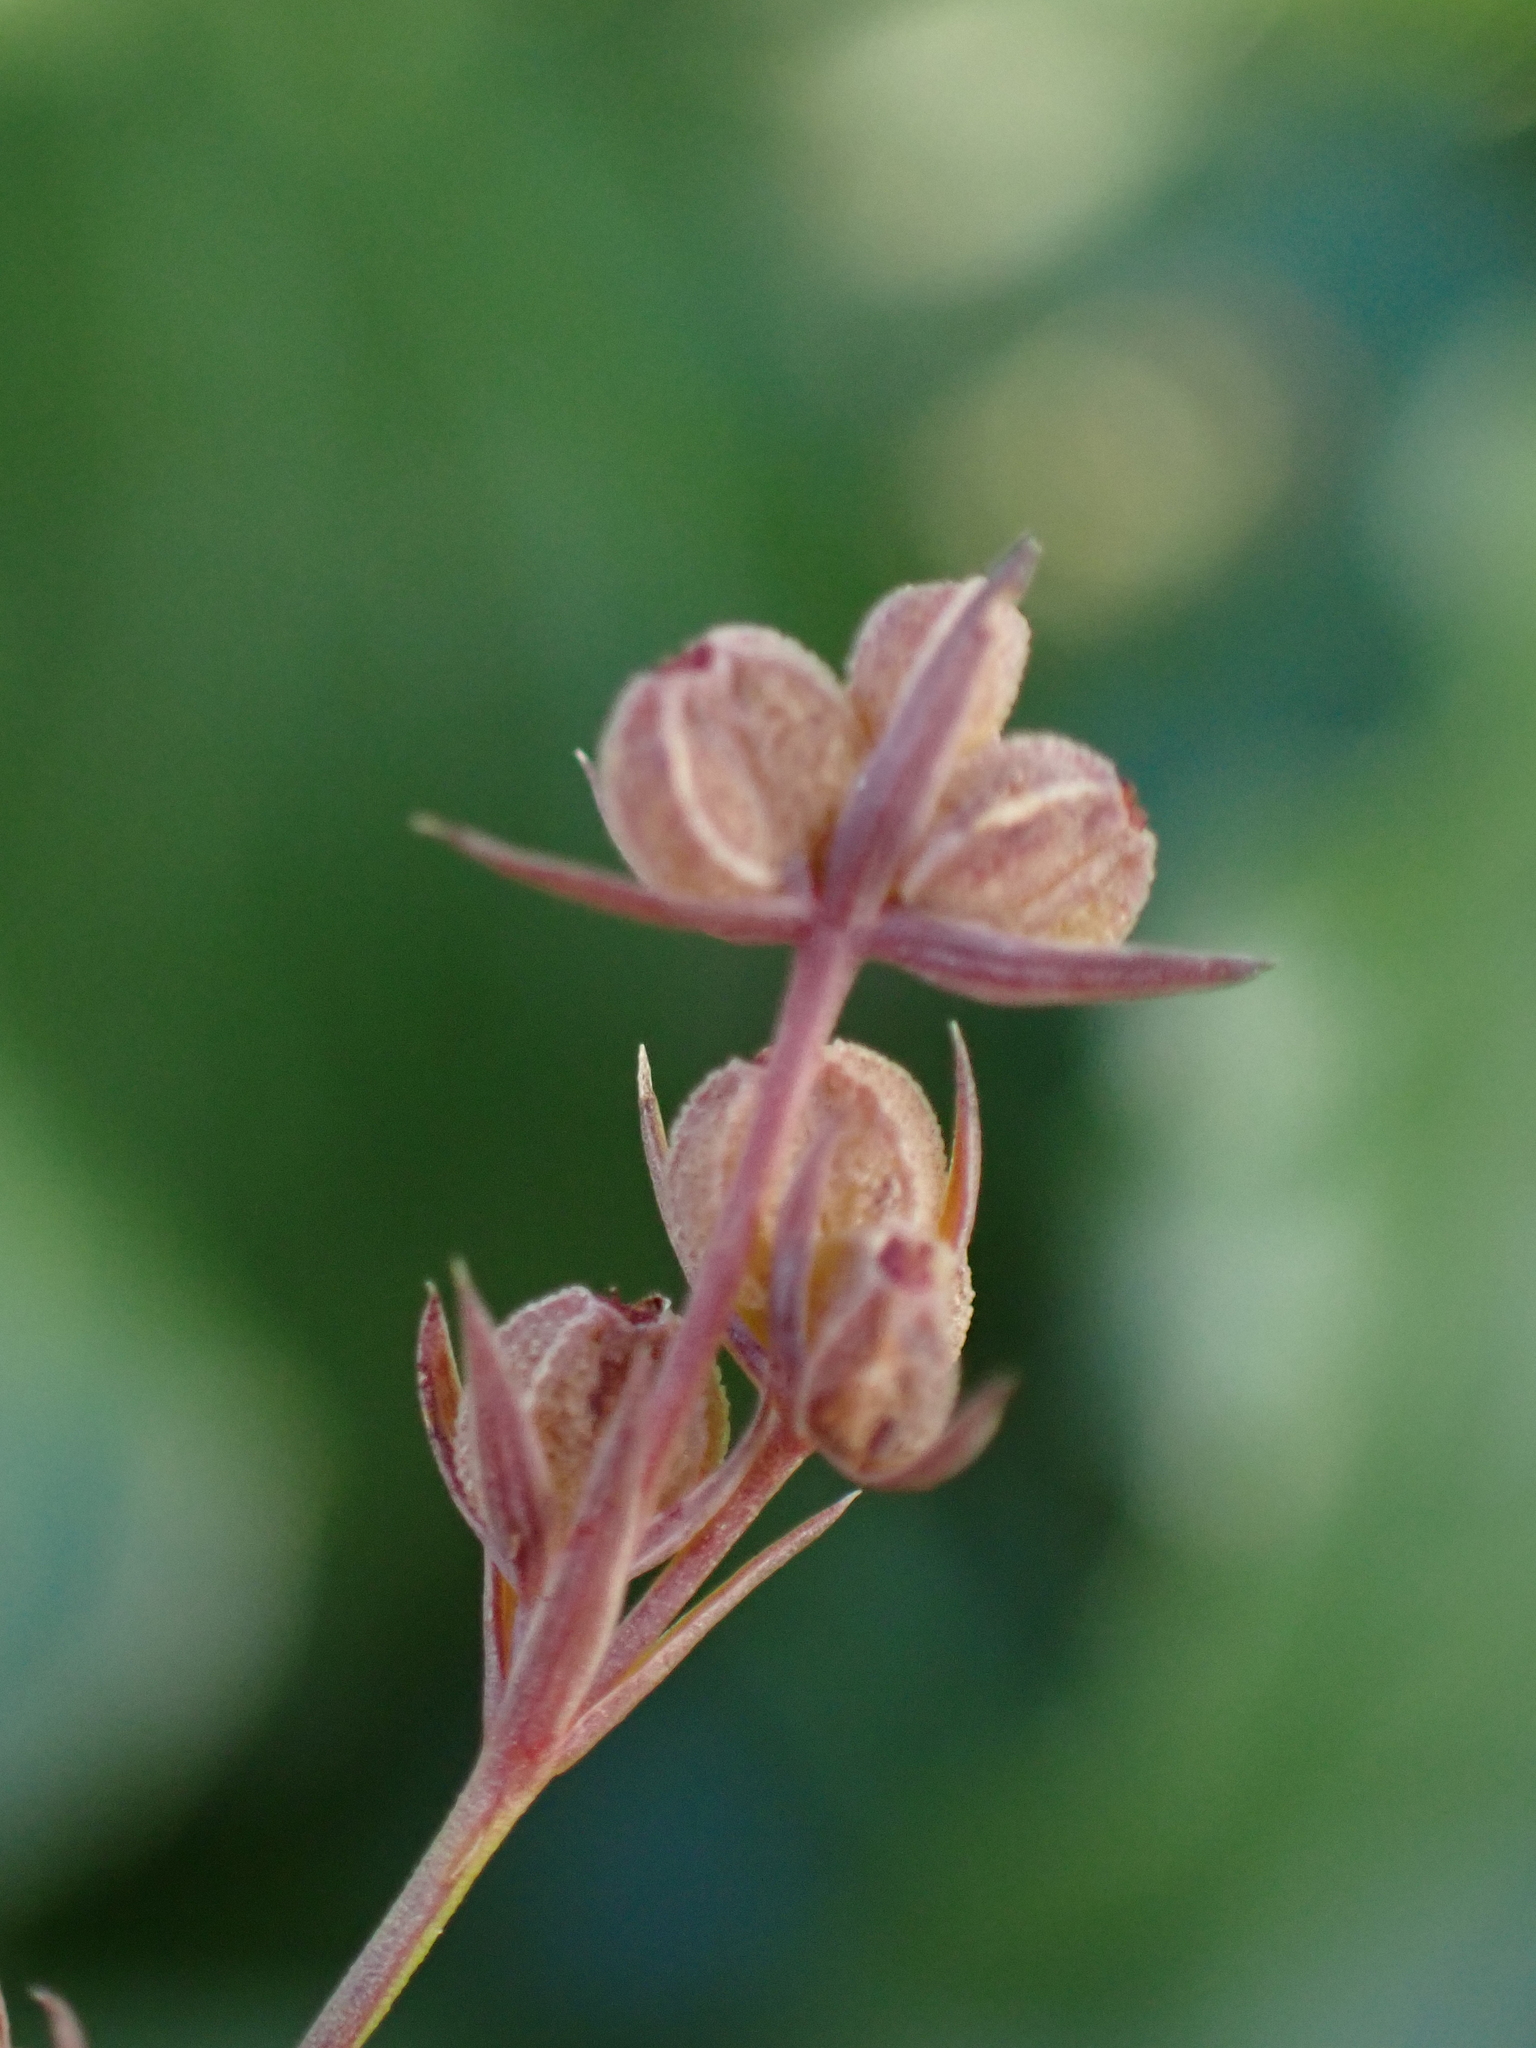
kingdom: Plantae
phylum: Tracheophyta
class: Magnoliopsida
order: Apiales
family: Apiaceae
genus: Bupleurum
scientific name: Bupleurum tenuissimum
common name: Slender hare's-ear
